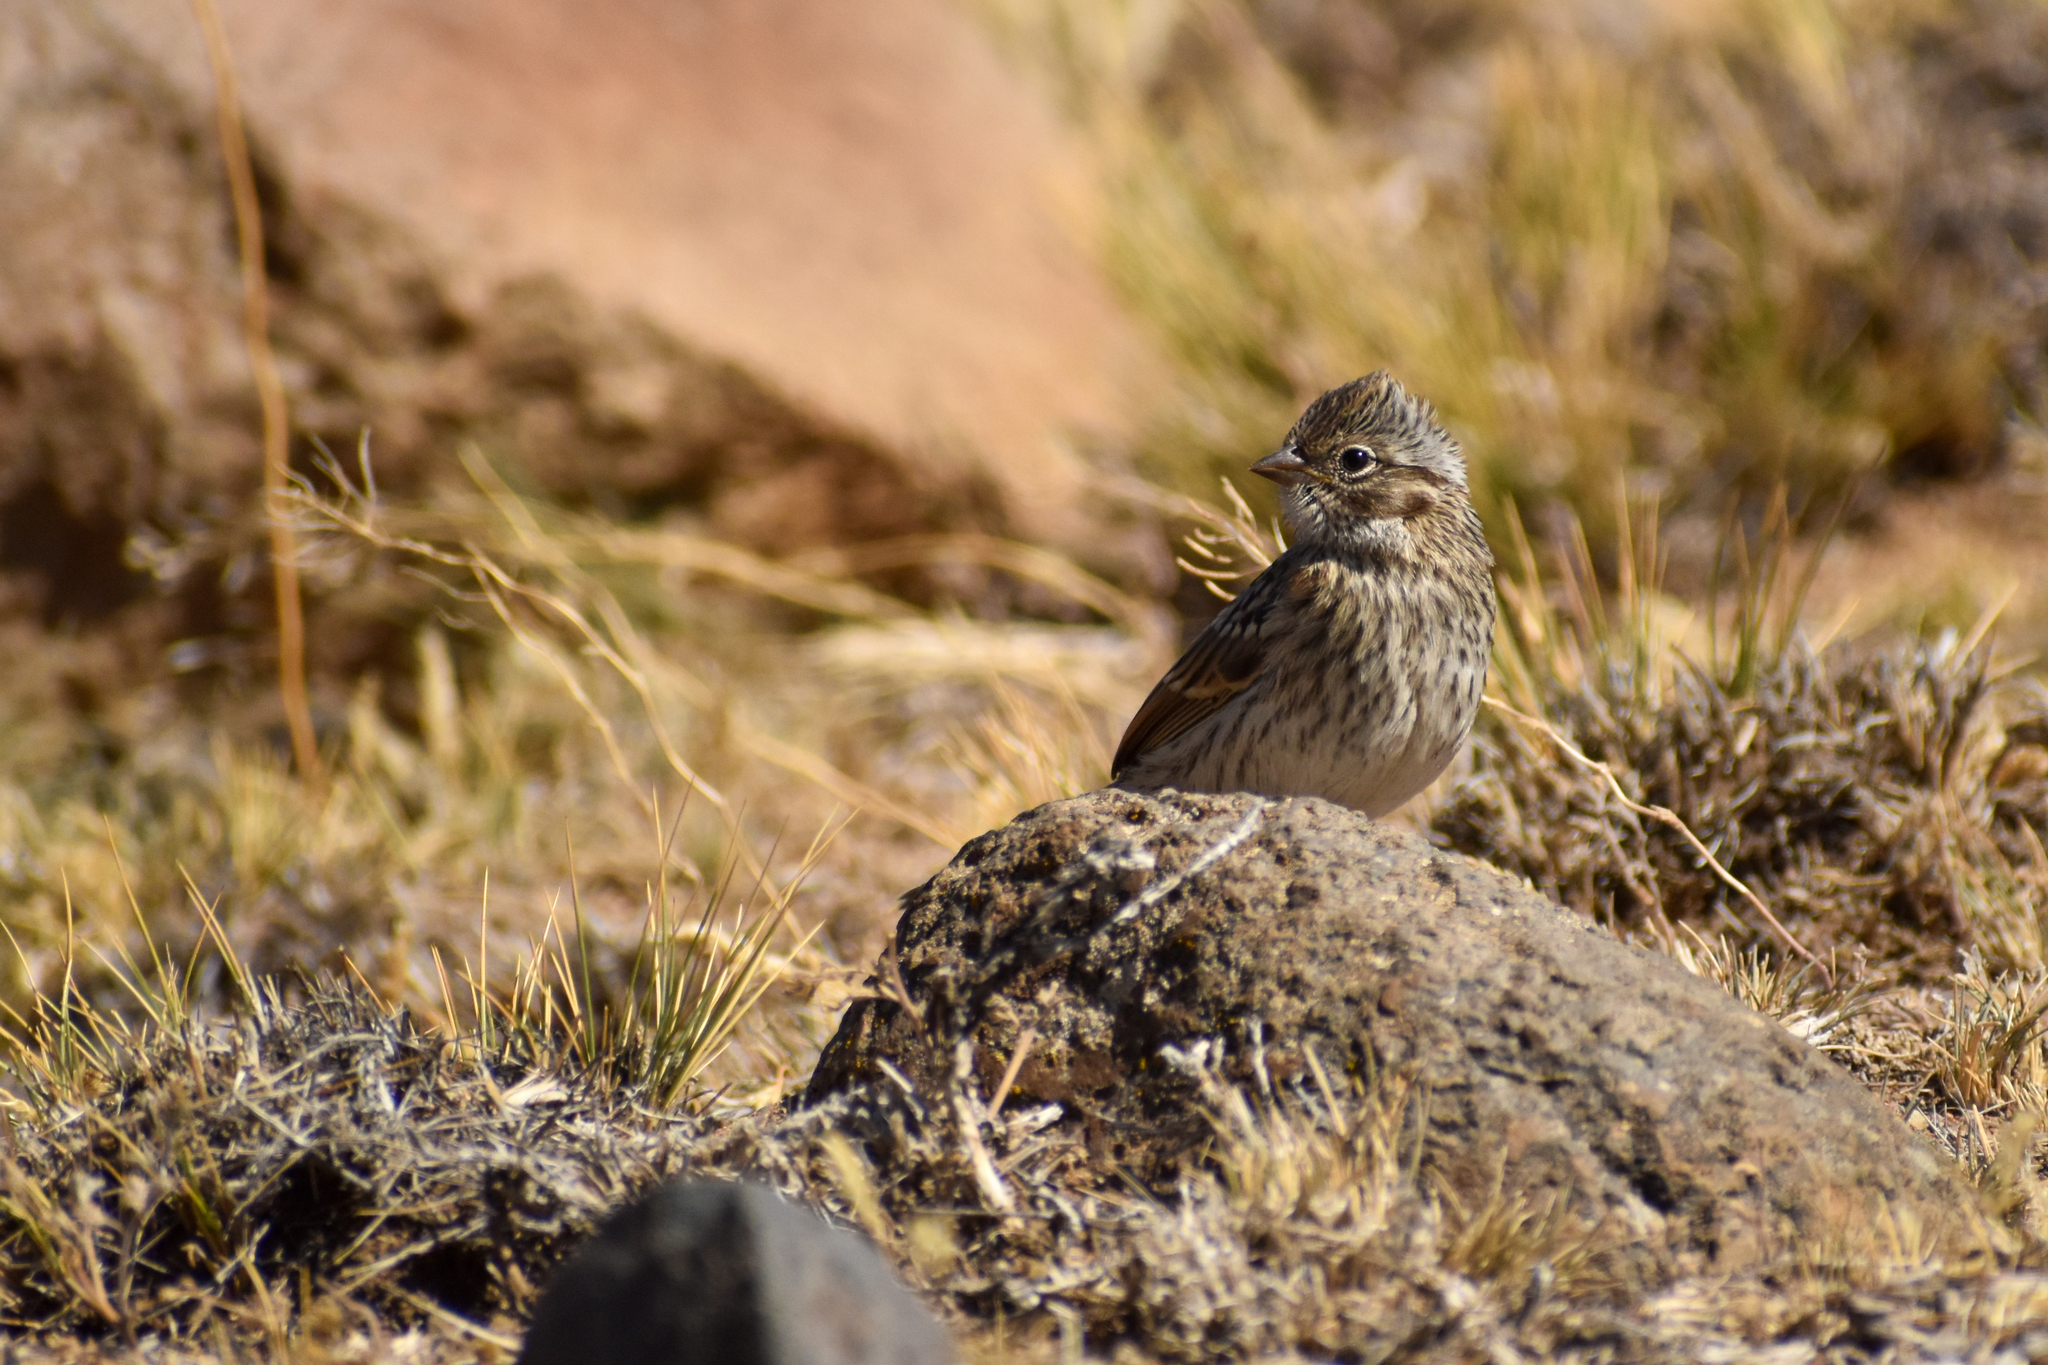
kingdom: Animalia
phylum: Chordata
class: Aves
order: Passeriformes
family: Passerellidae
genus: Zonotrichia
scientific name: Zonotrichia capensis
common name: Rufous-collared sparrow
